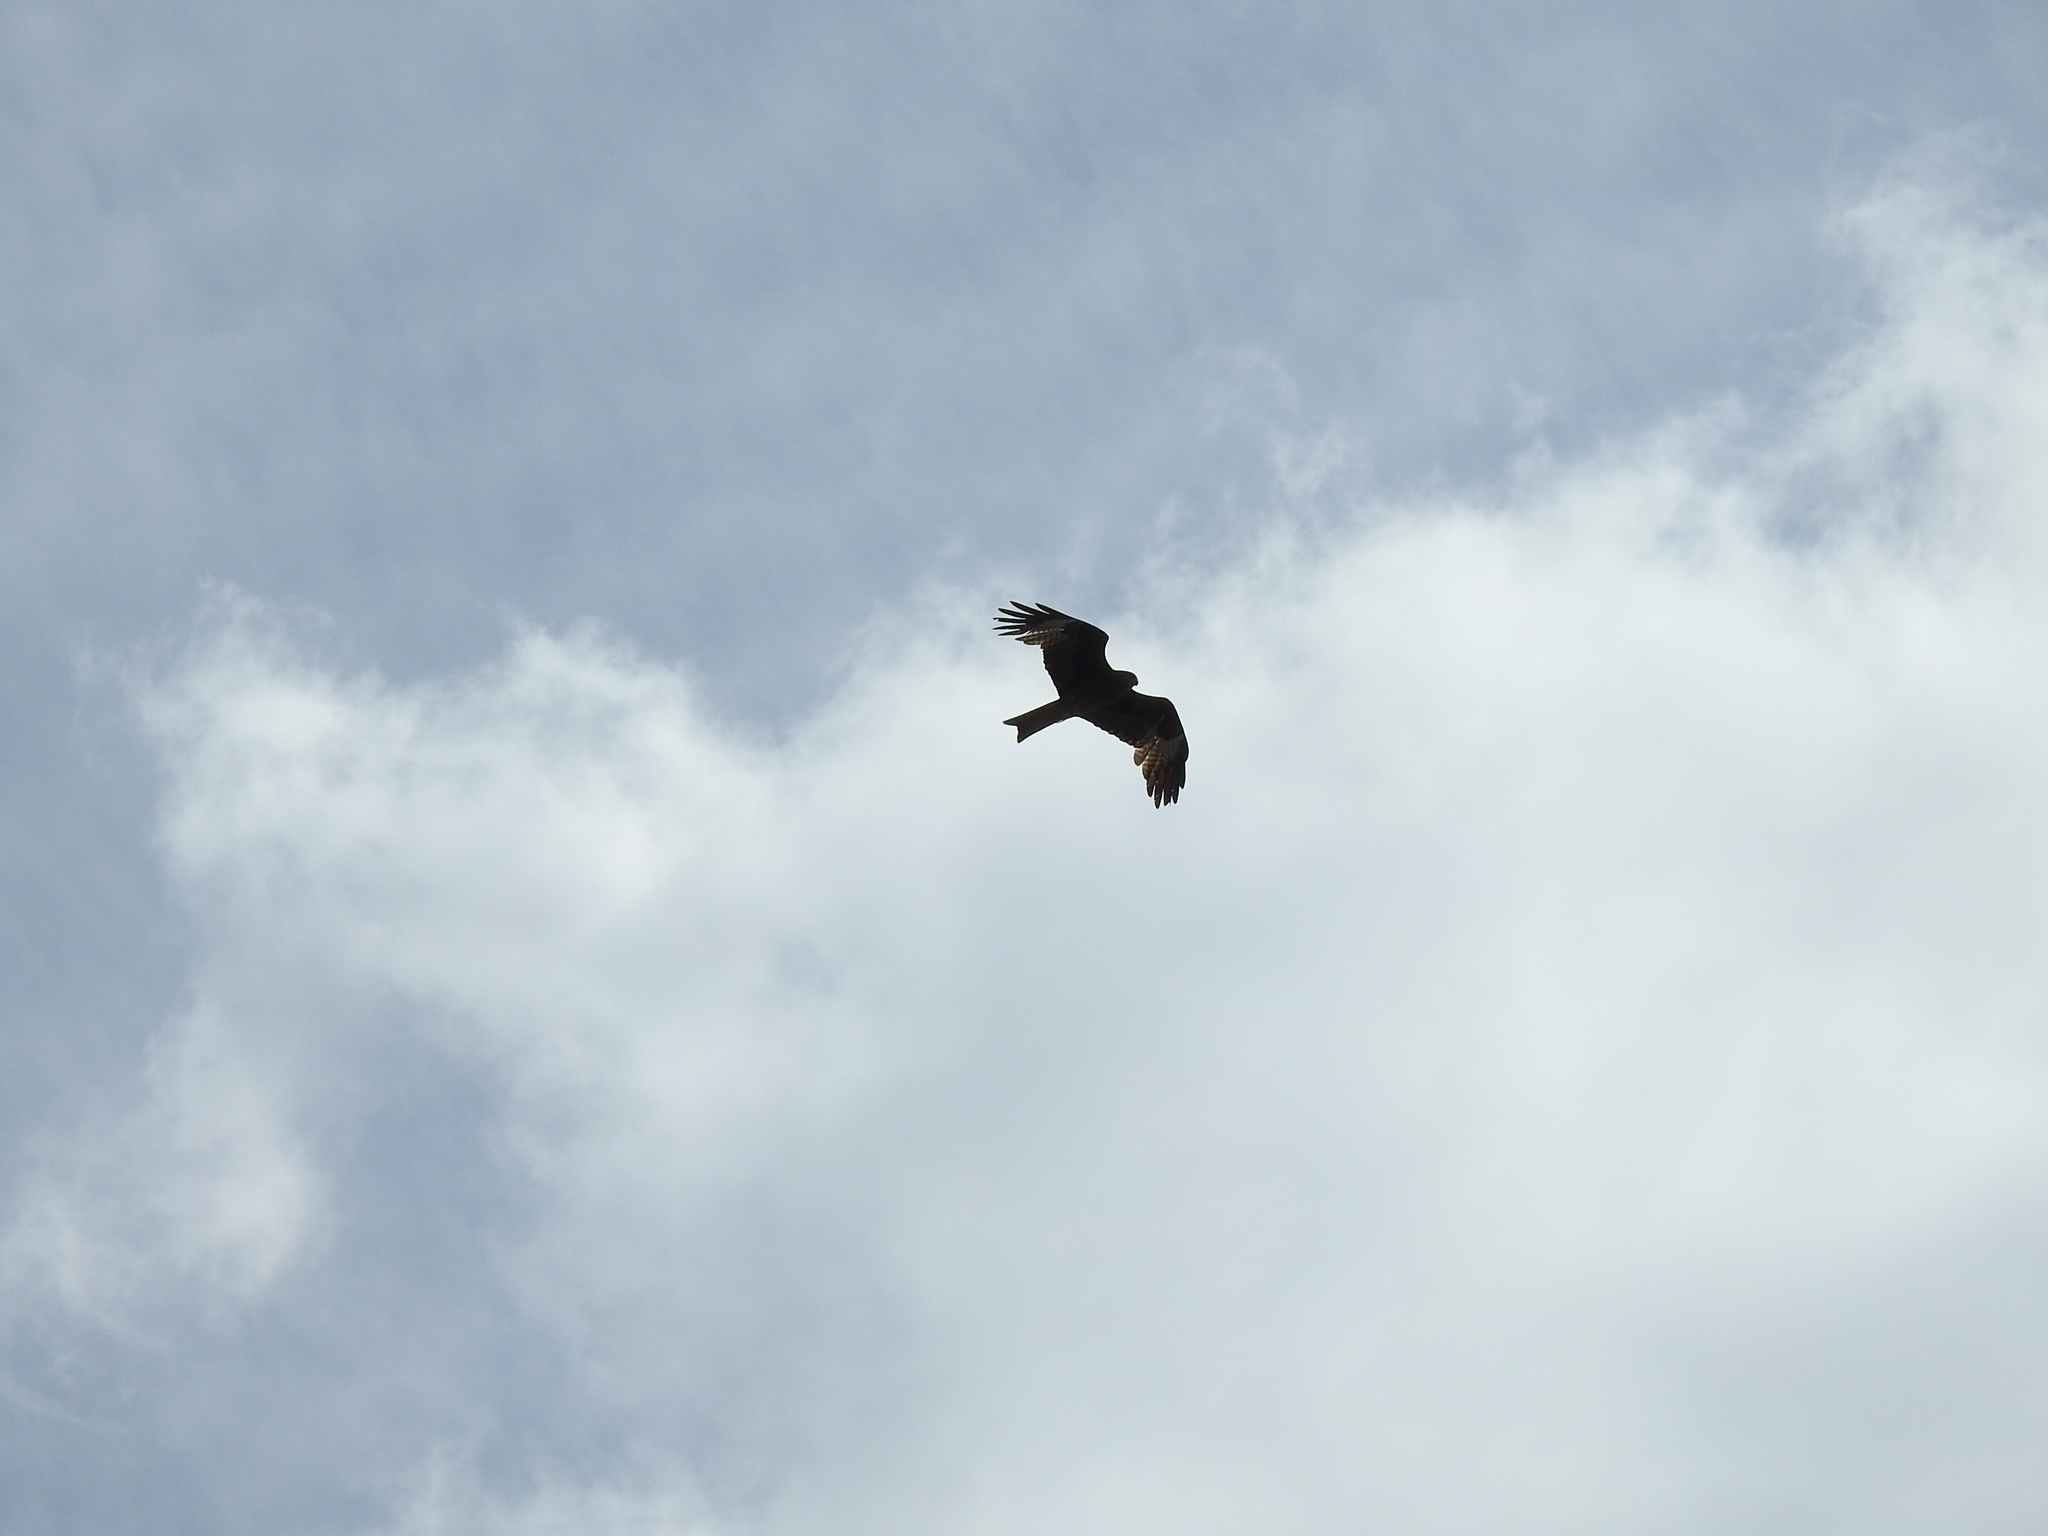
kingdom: Animalia
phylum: Chordata
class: Aves
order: Accipitriformes
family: Accipitridae
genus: Milvus
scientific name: Milvus migrans
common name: Black kite
